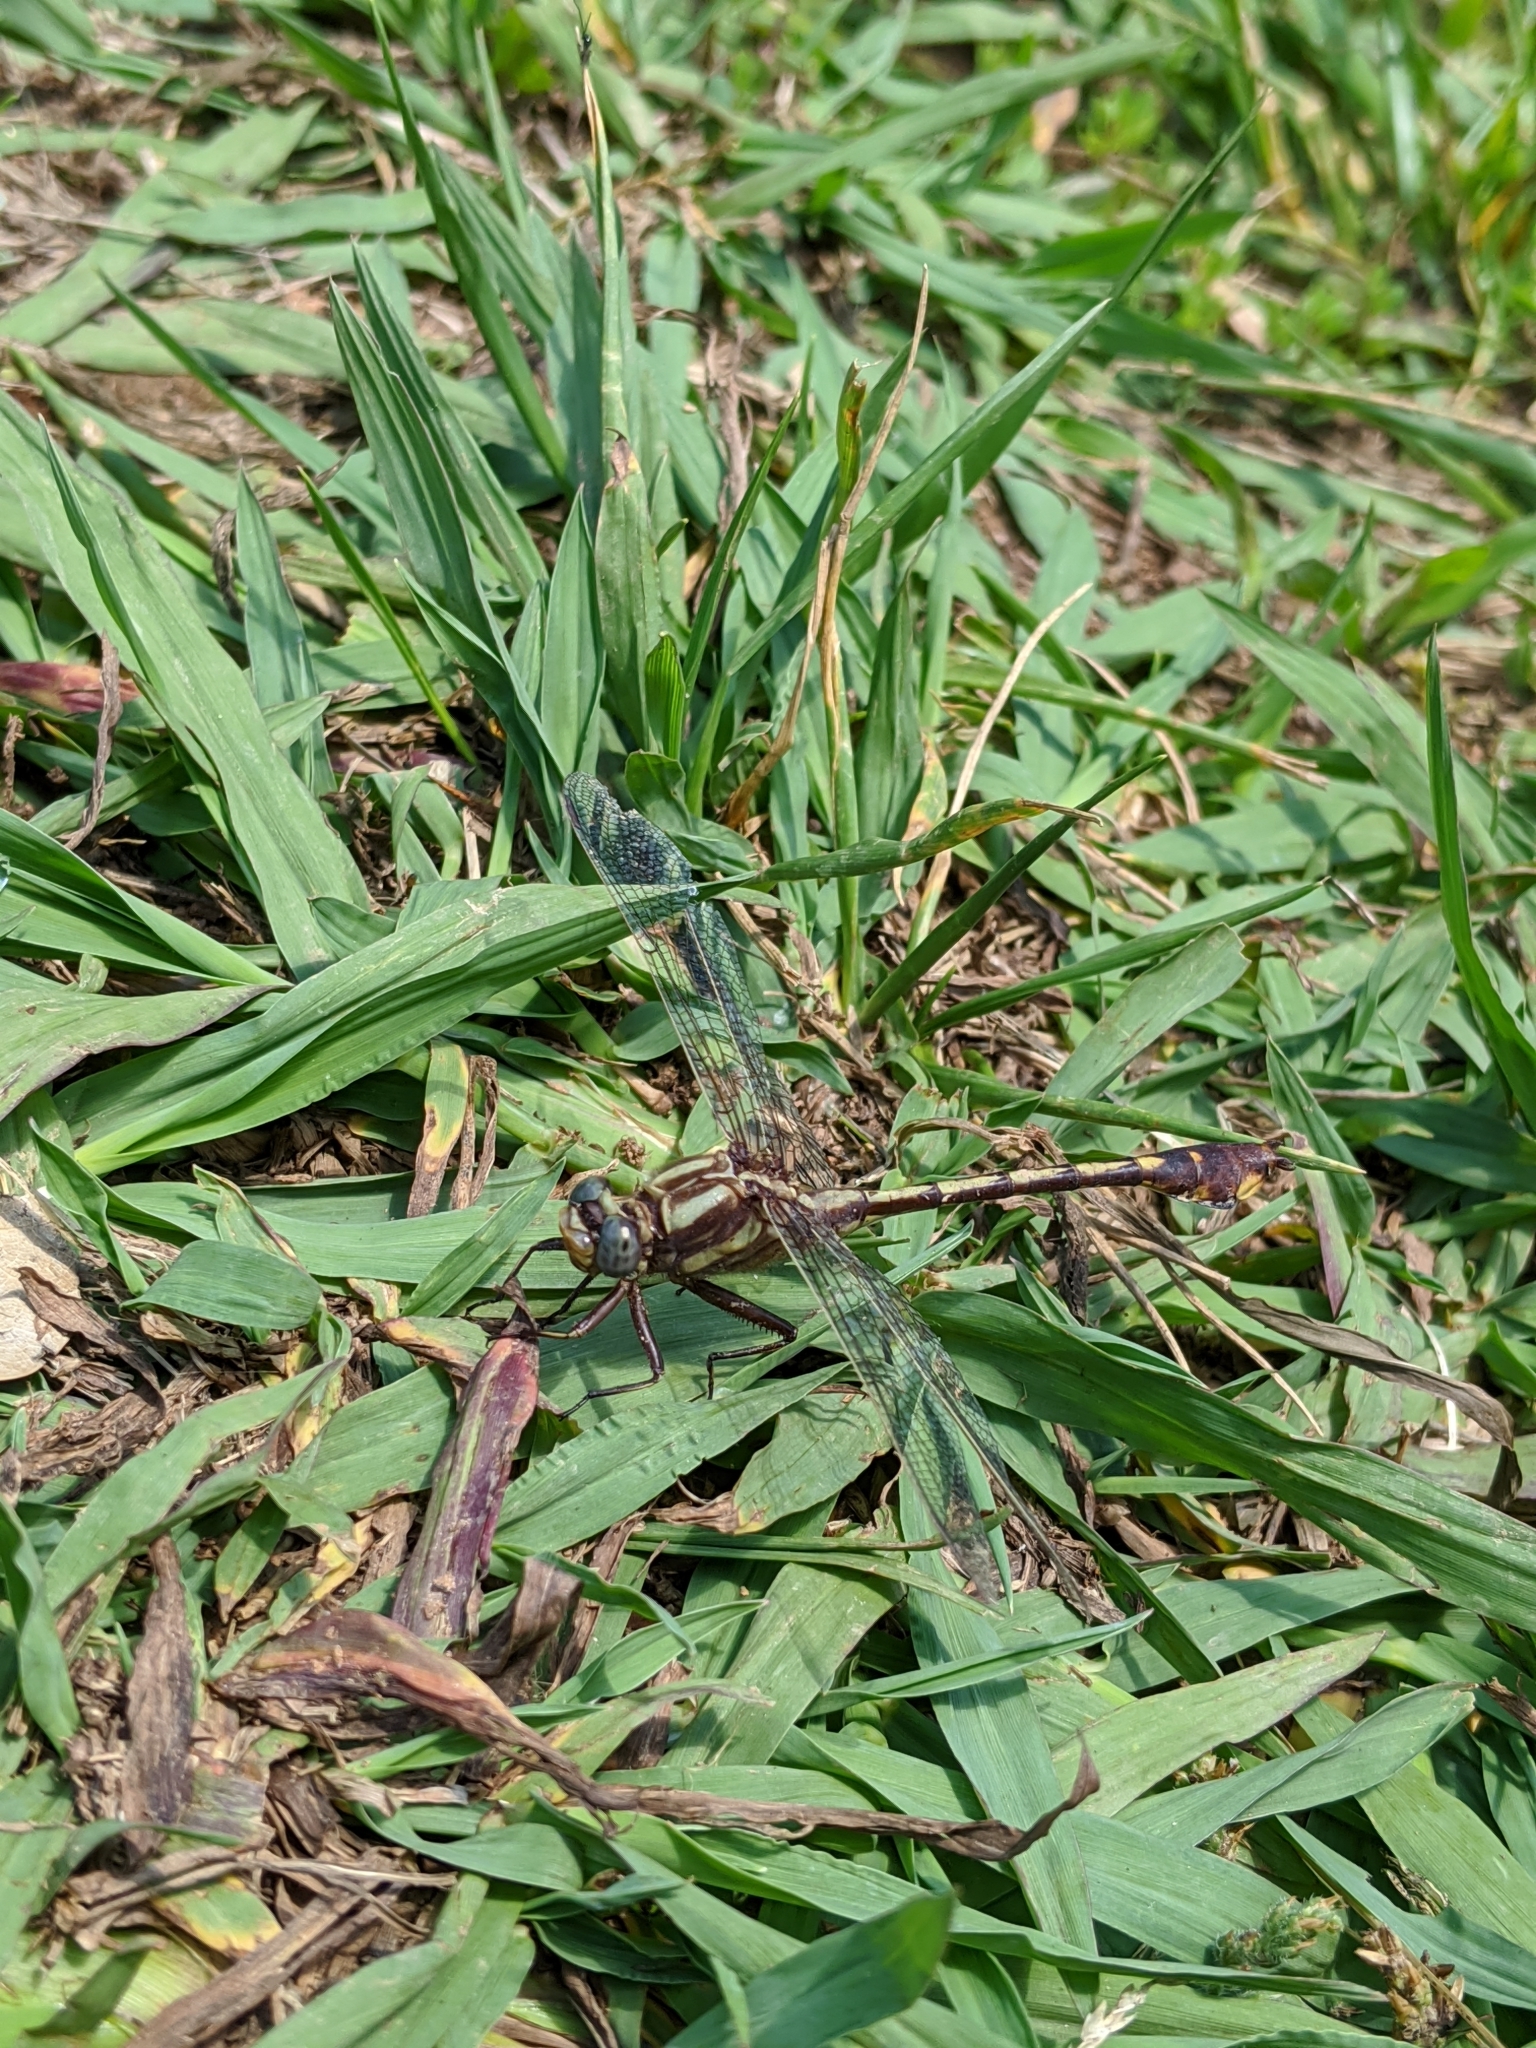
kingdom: Animalia
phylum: Arthropoda
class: Insecta
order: Odonata
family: Gomphidae
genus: Gomphurus
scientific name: Gomphurus hybridus
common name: Cocoa clubtail
